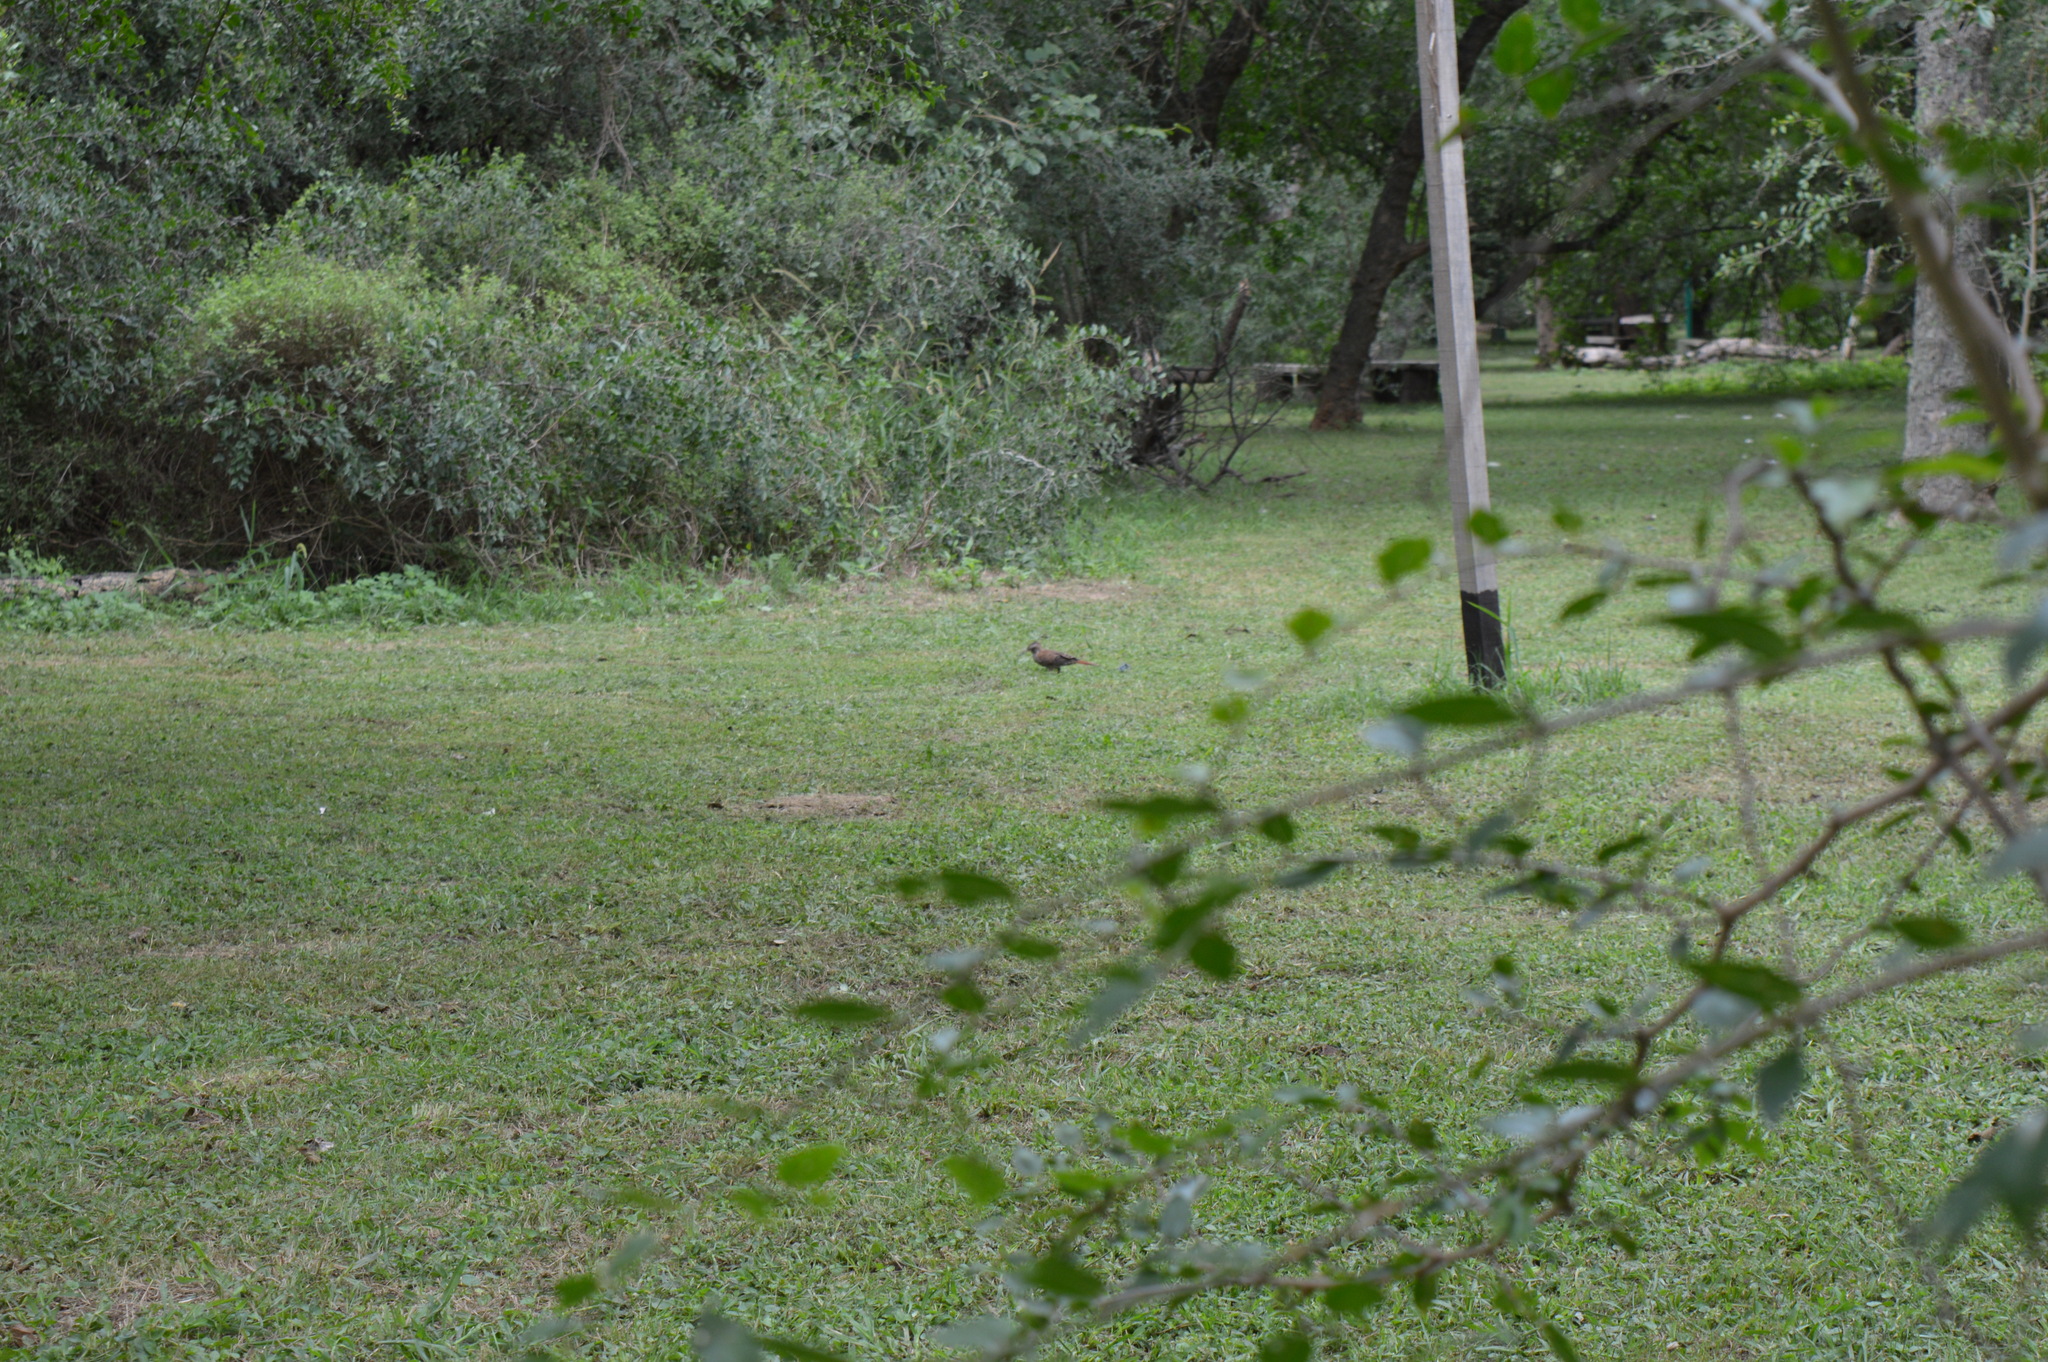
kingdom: Animalia
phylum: Chordata
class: Aves
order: Passeriformes
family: Furnariidae
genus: Drymornis
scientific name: Drymornis bridgesii
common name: Scimitar-billed woodcreeper
